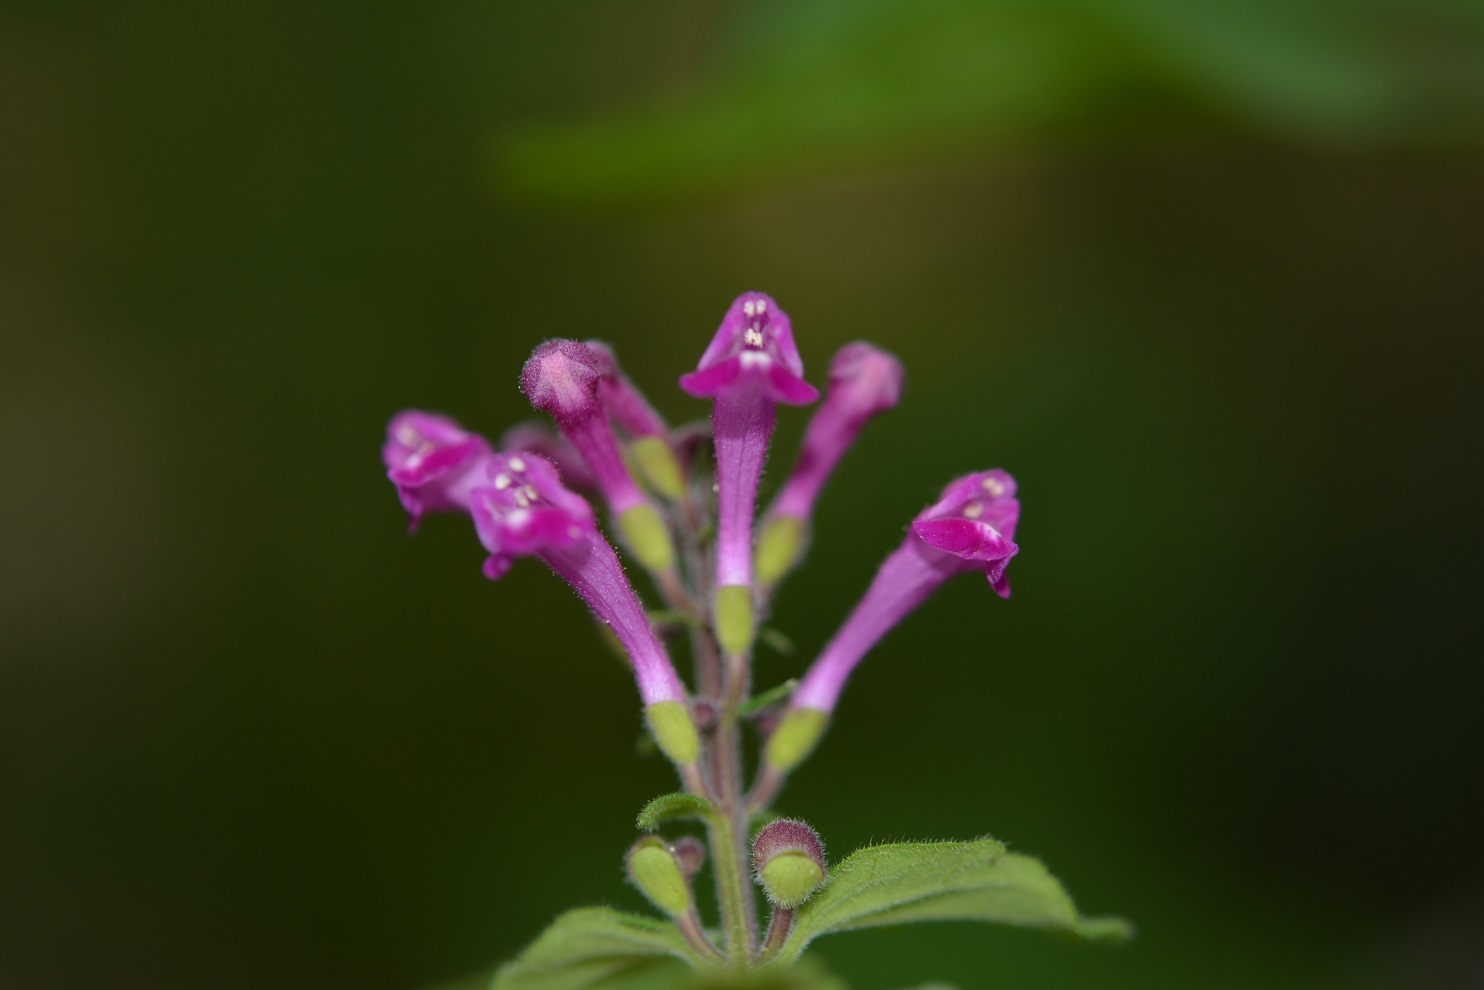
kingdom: Plantae
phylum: Tracheophyta
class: Magnoliopsida
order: Lamiales
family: Lamiaceae
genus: Scutellaria
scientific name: Scutellaria guatemalensis
